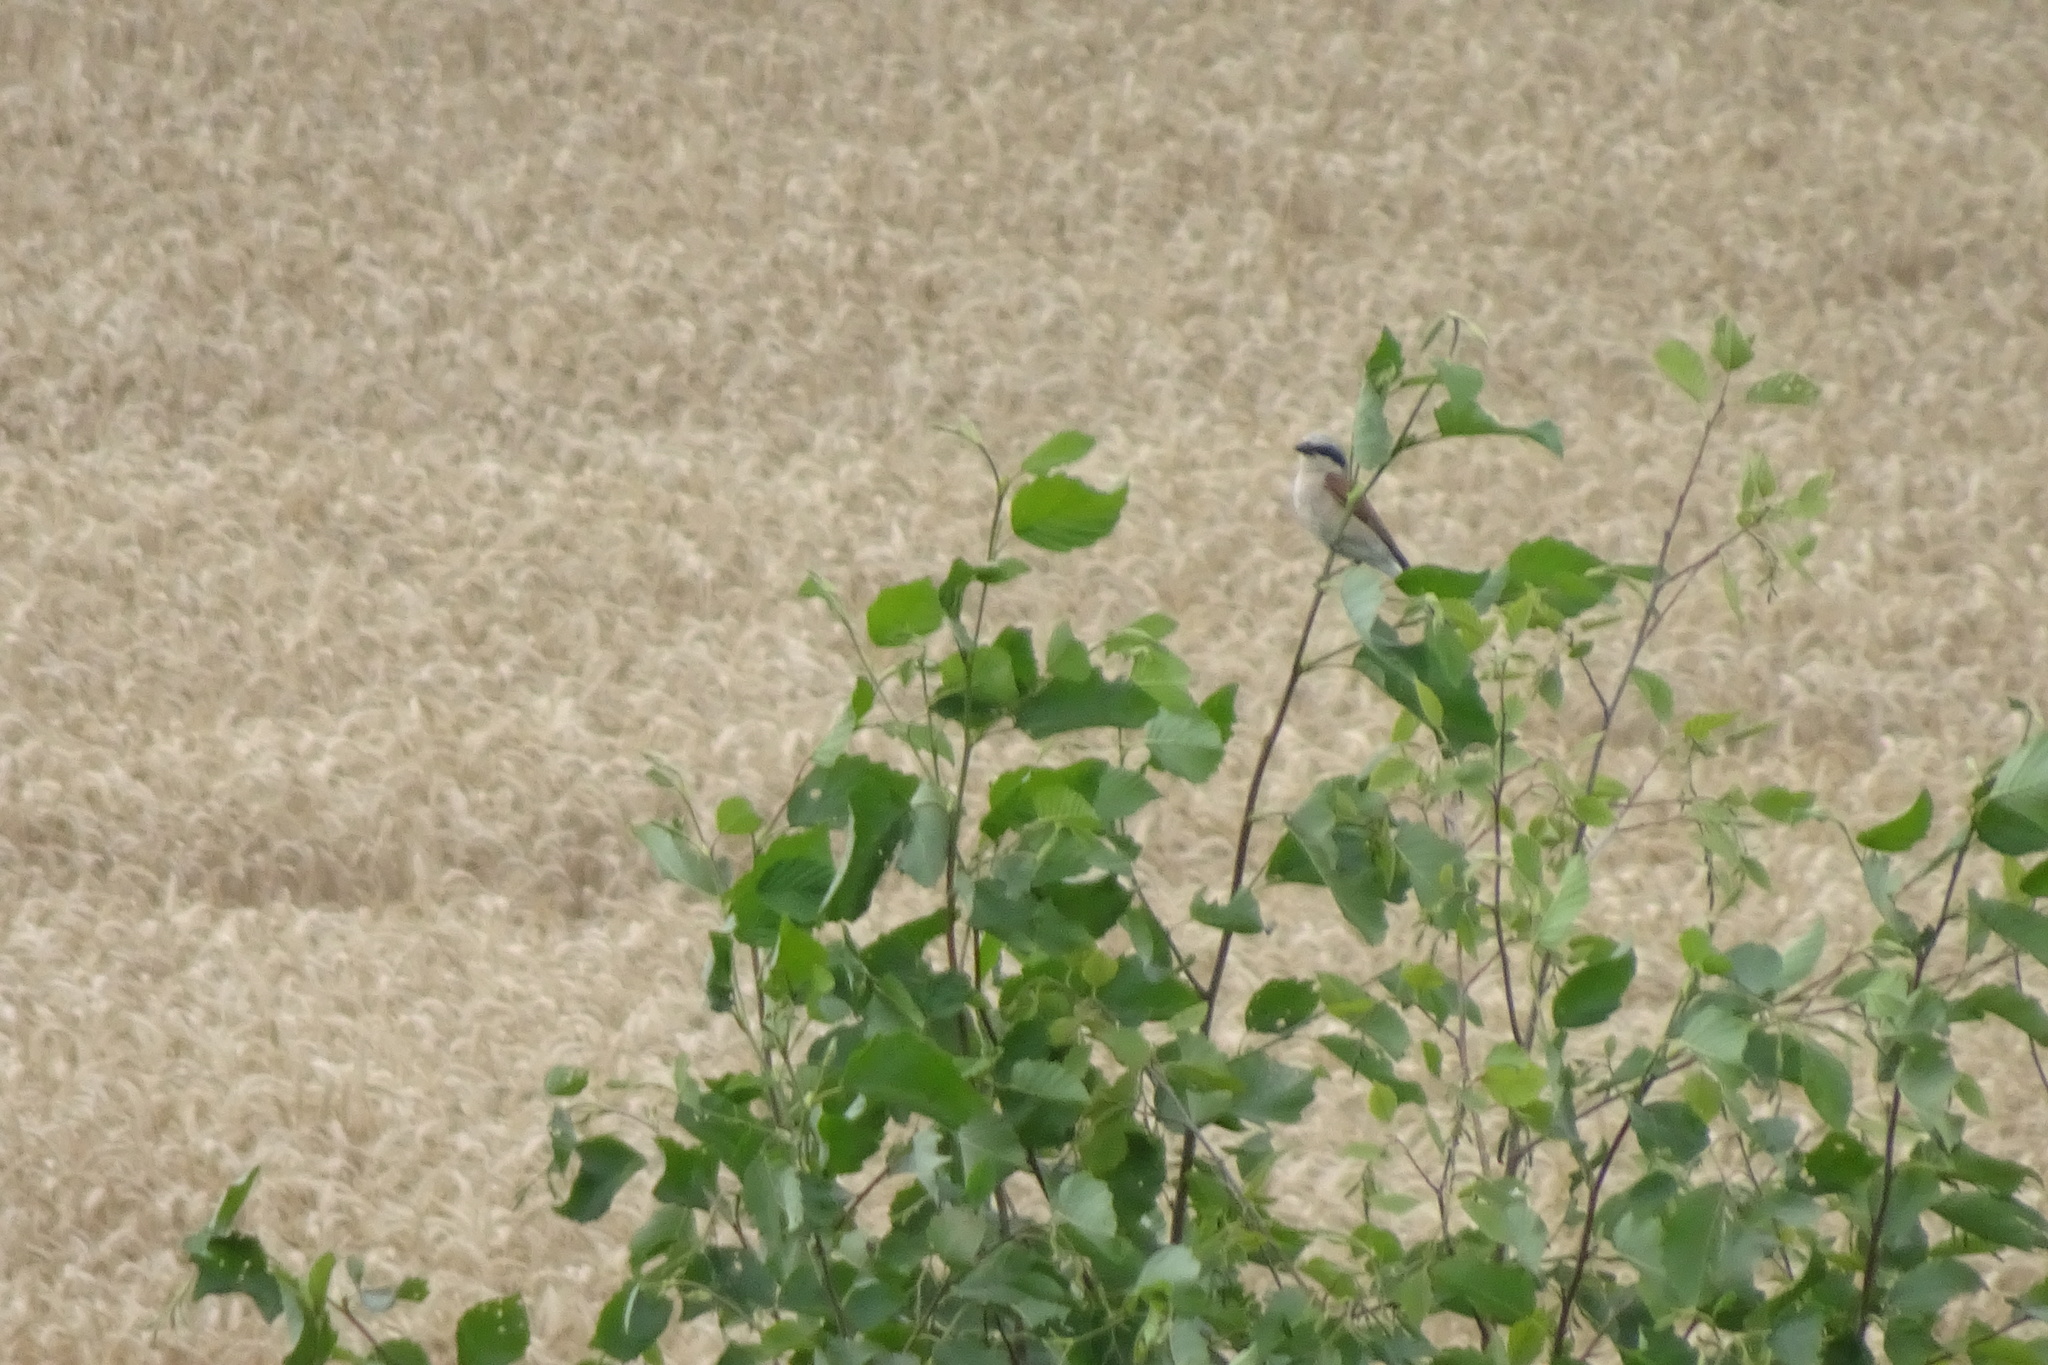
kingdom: Animalia
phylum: Chordata
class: Aves
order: Passeriformes
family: Laniidae
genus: Lanius
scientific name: Lanius collurio
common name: Red-backed shrike
